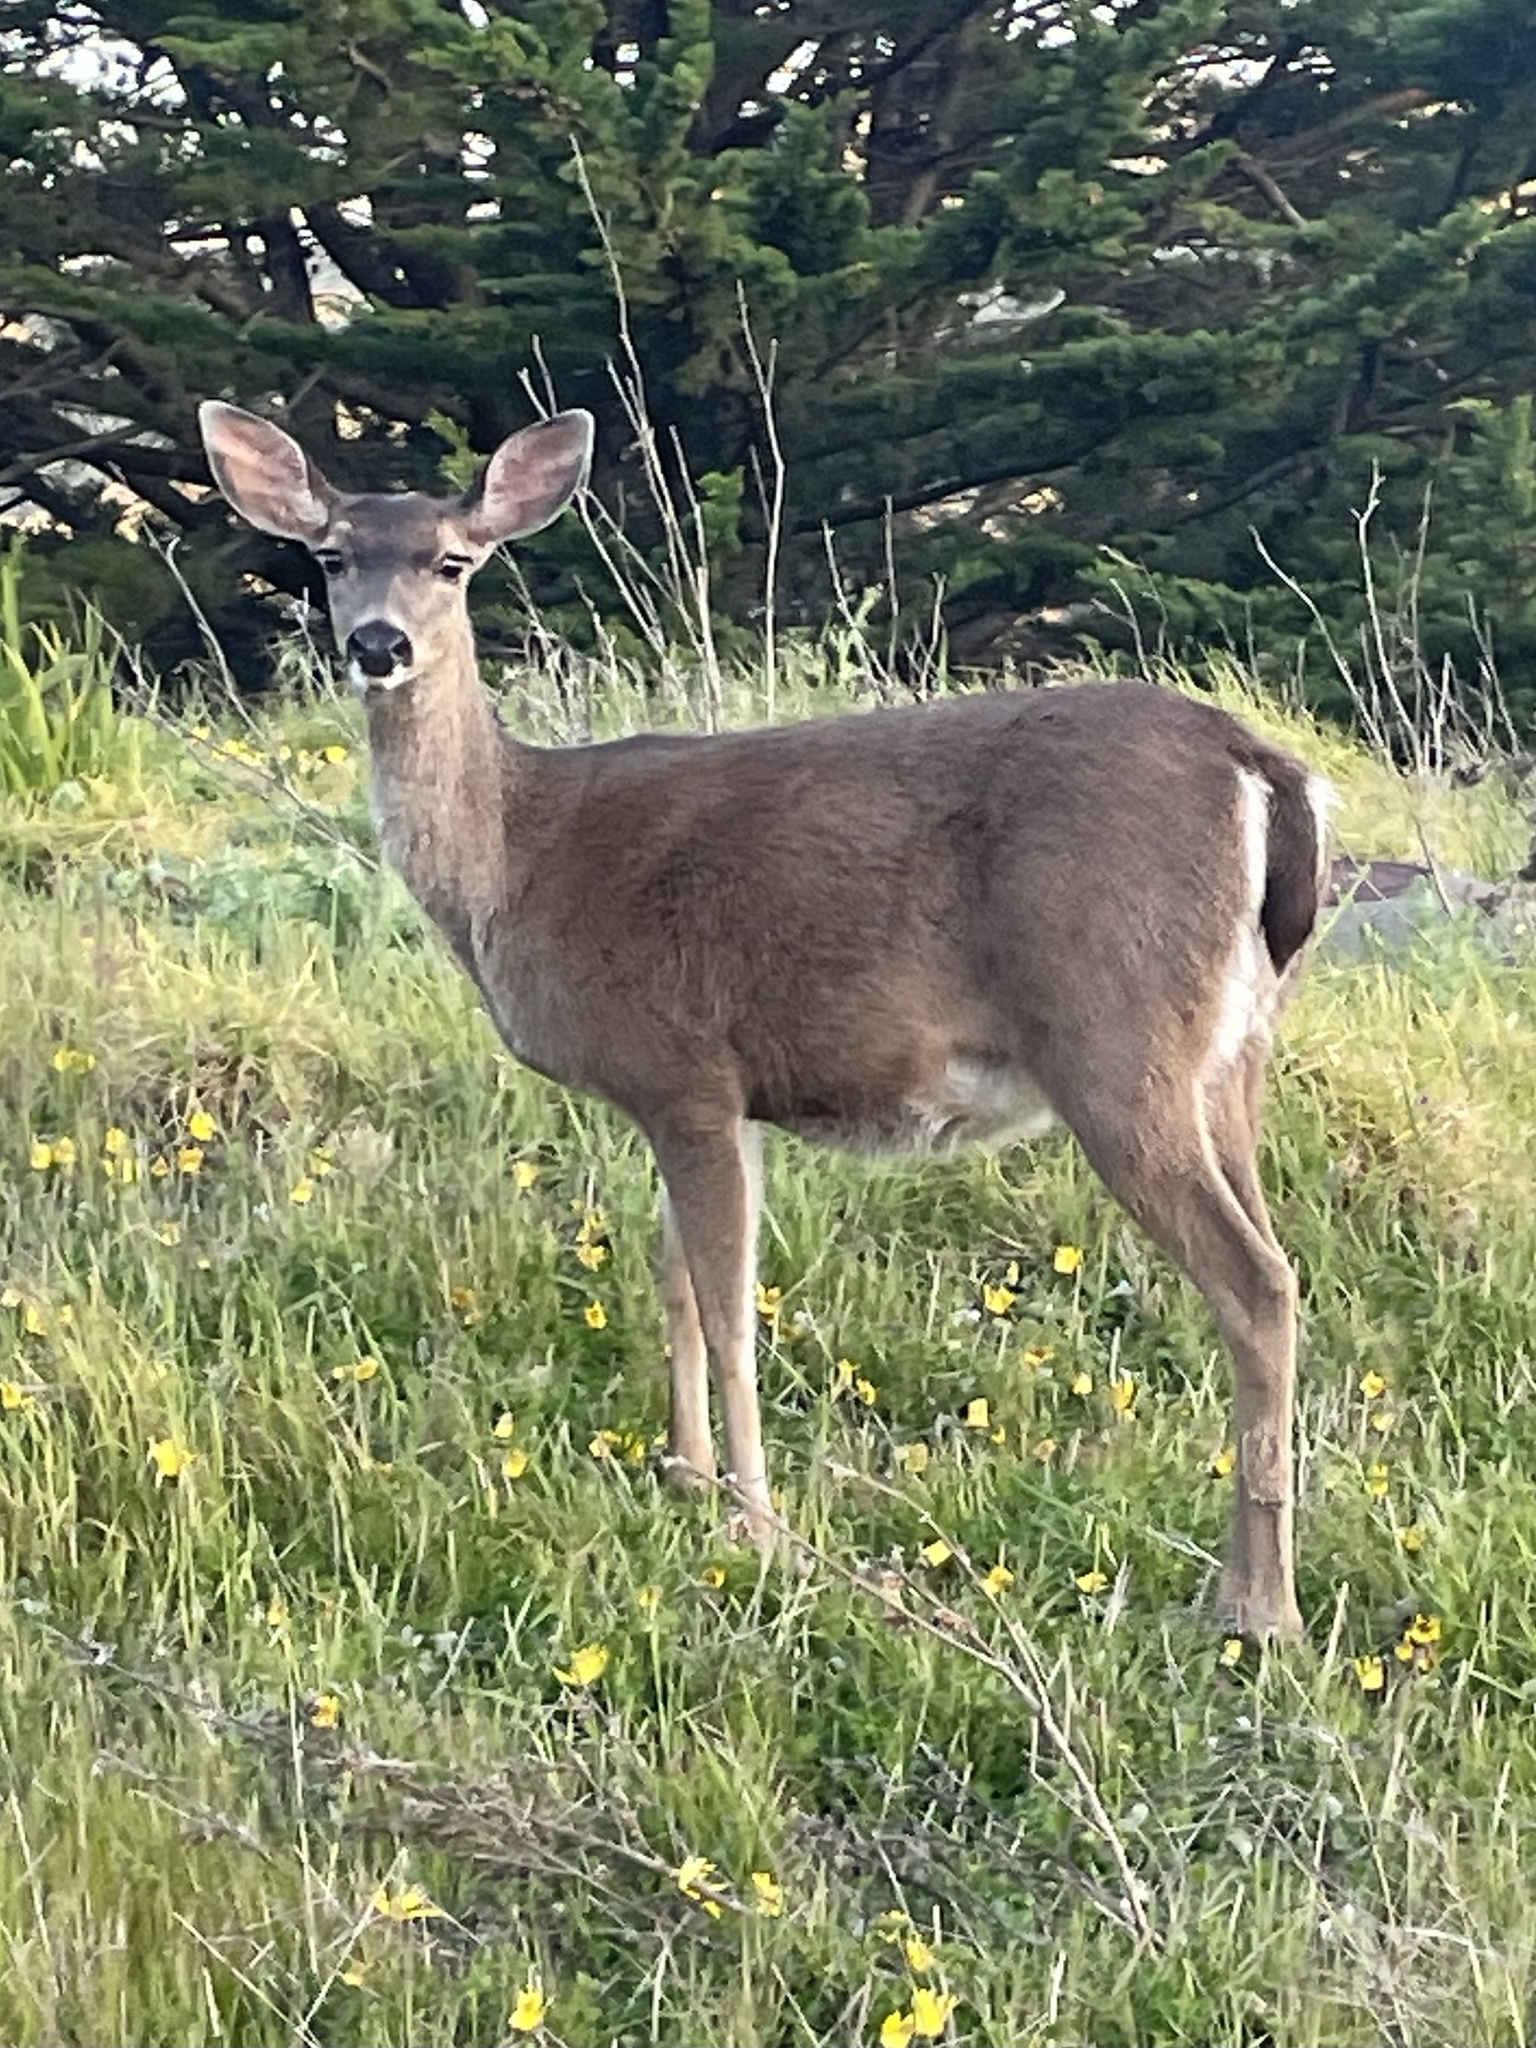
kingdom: Animalia
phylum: Chordata
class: Mammalia
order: Artiodactyla
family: Cervidae
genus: Odocoileus
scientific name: Odocoileus hemionus
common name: Mule deer
